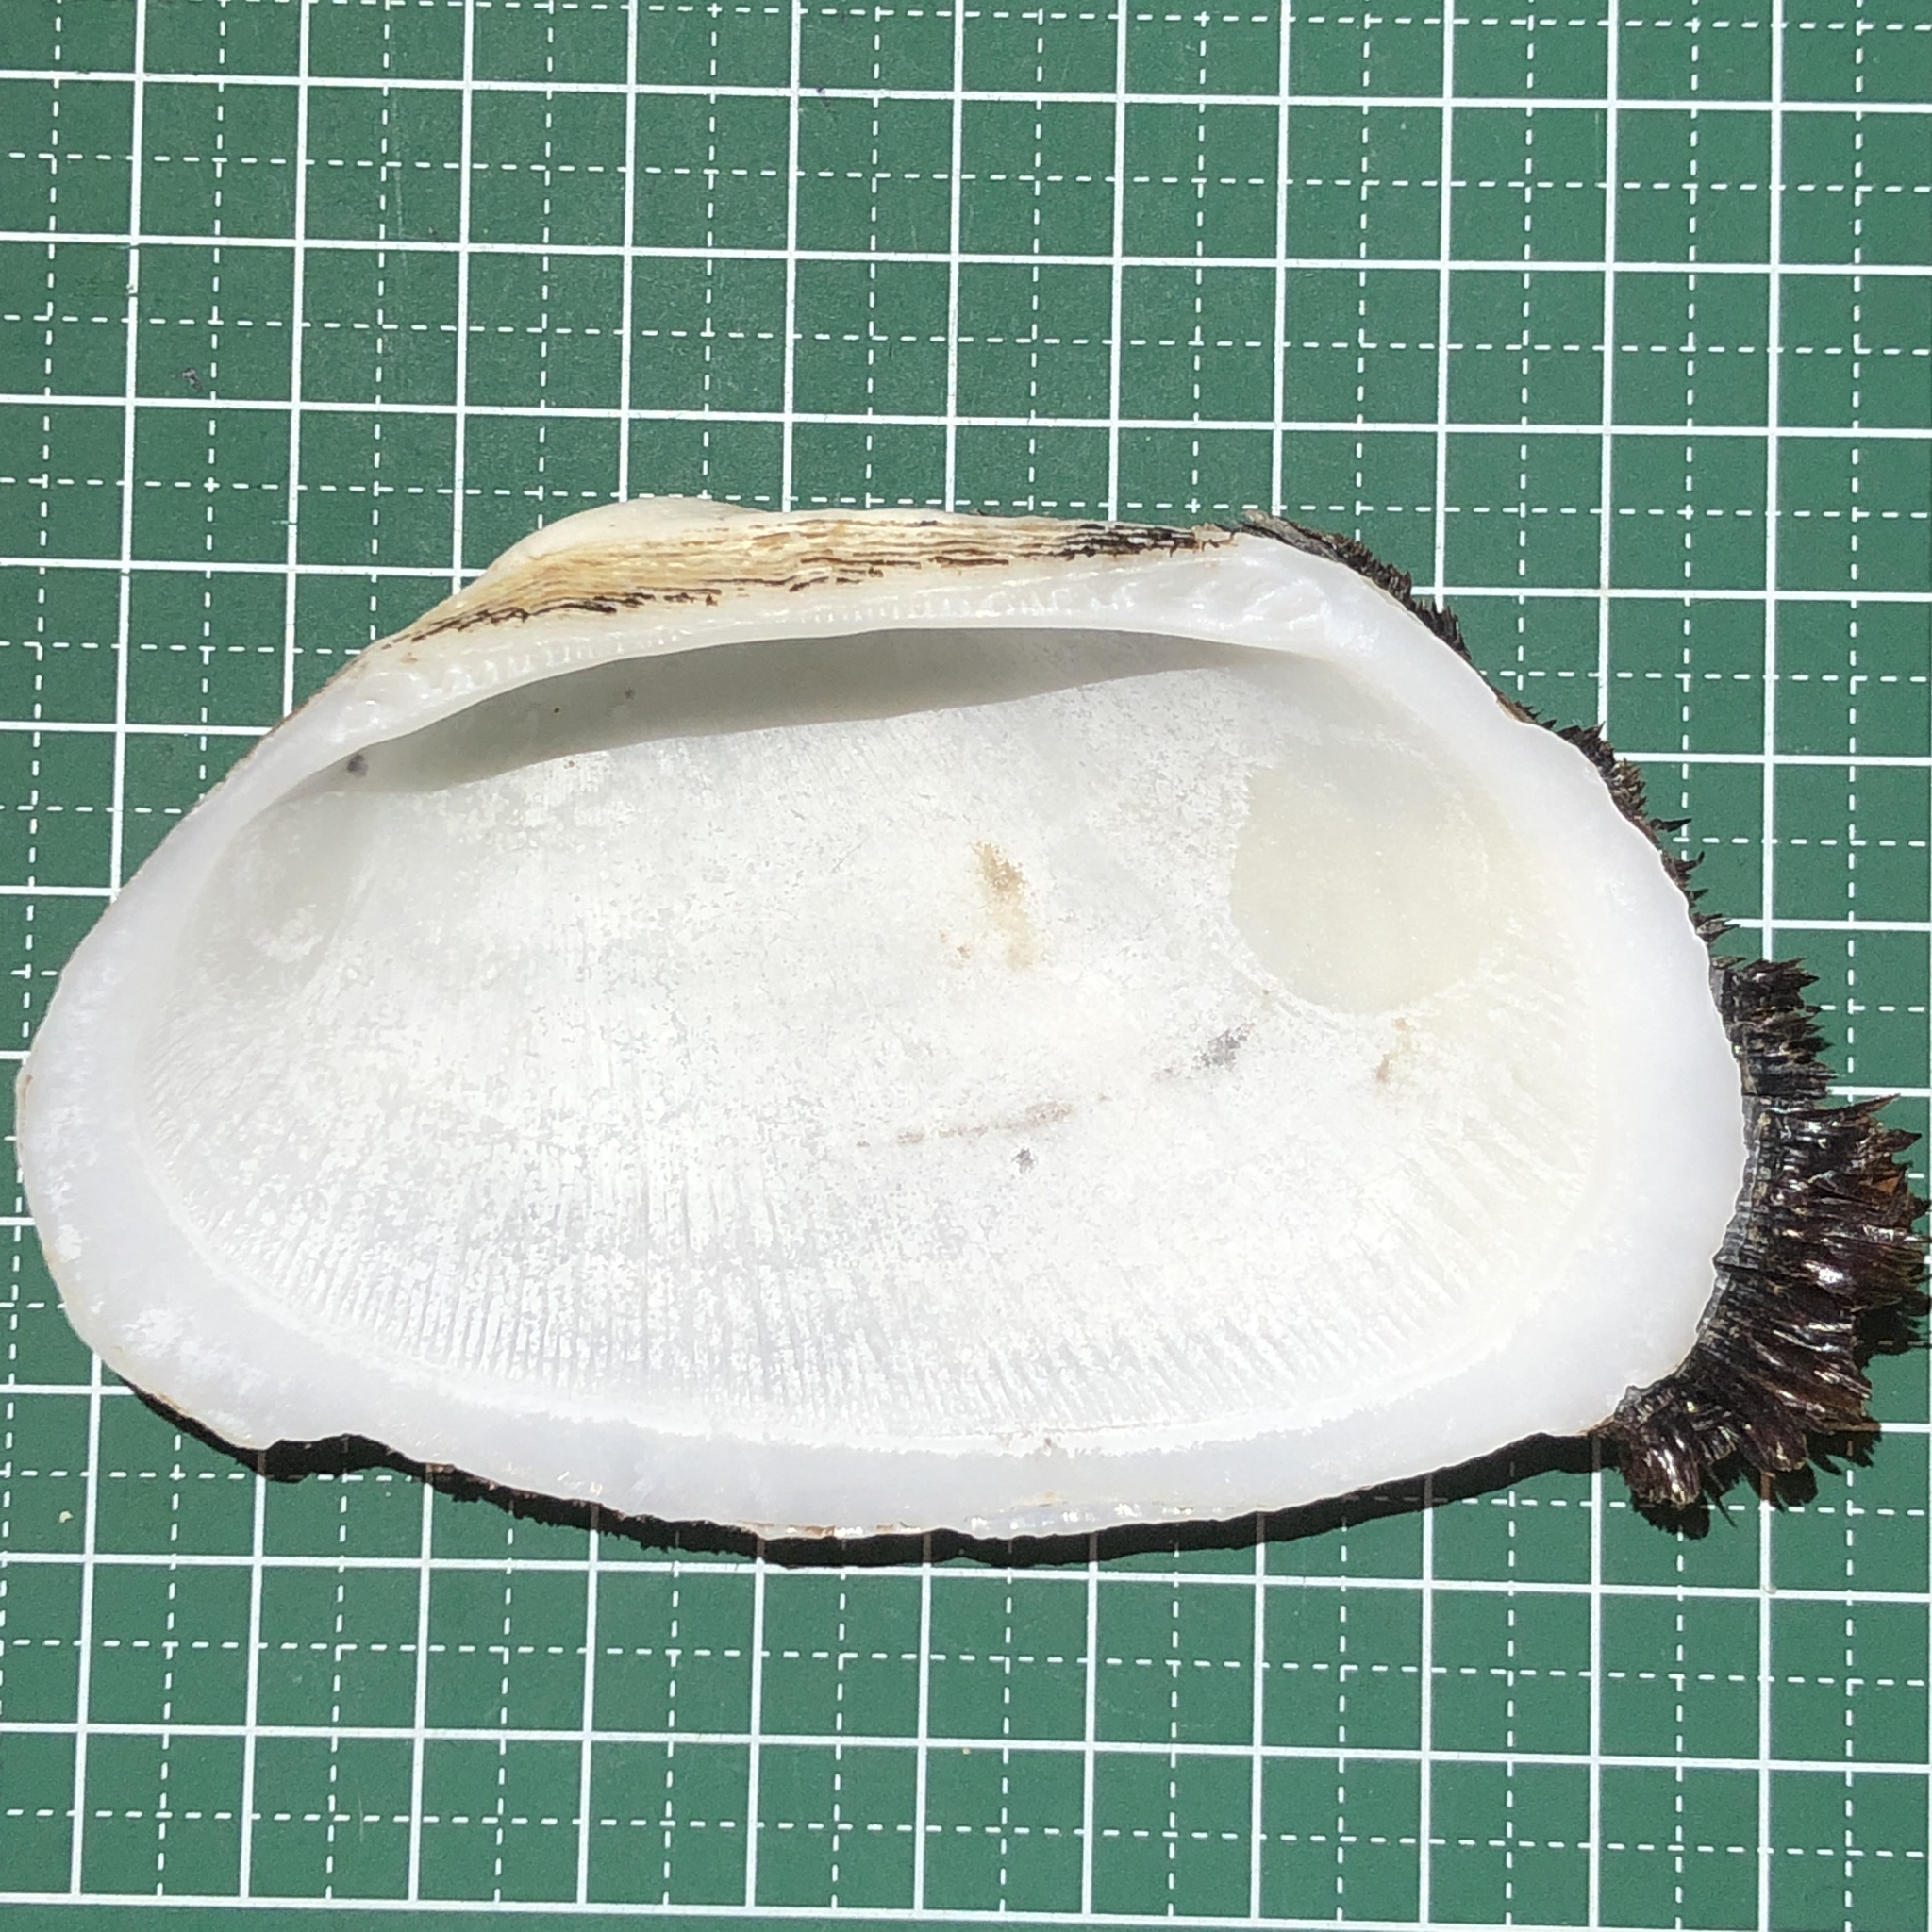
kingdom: Animalia
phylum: Mollusca
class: Bivalvia
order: Arcida
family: Arcidae
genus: Barbatia
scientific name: Barbatia foliata
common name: Leafy ark
